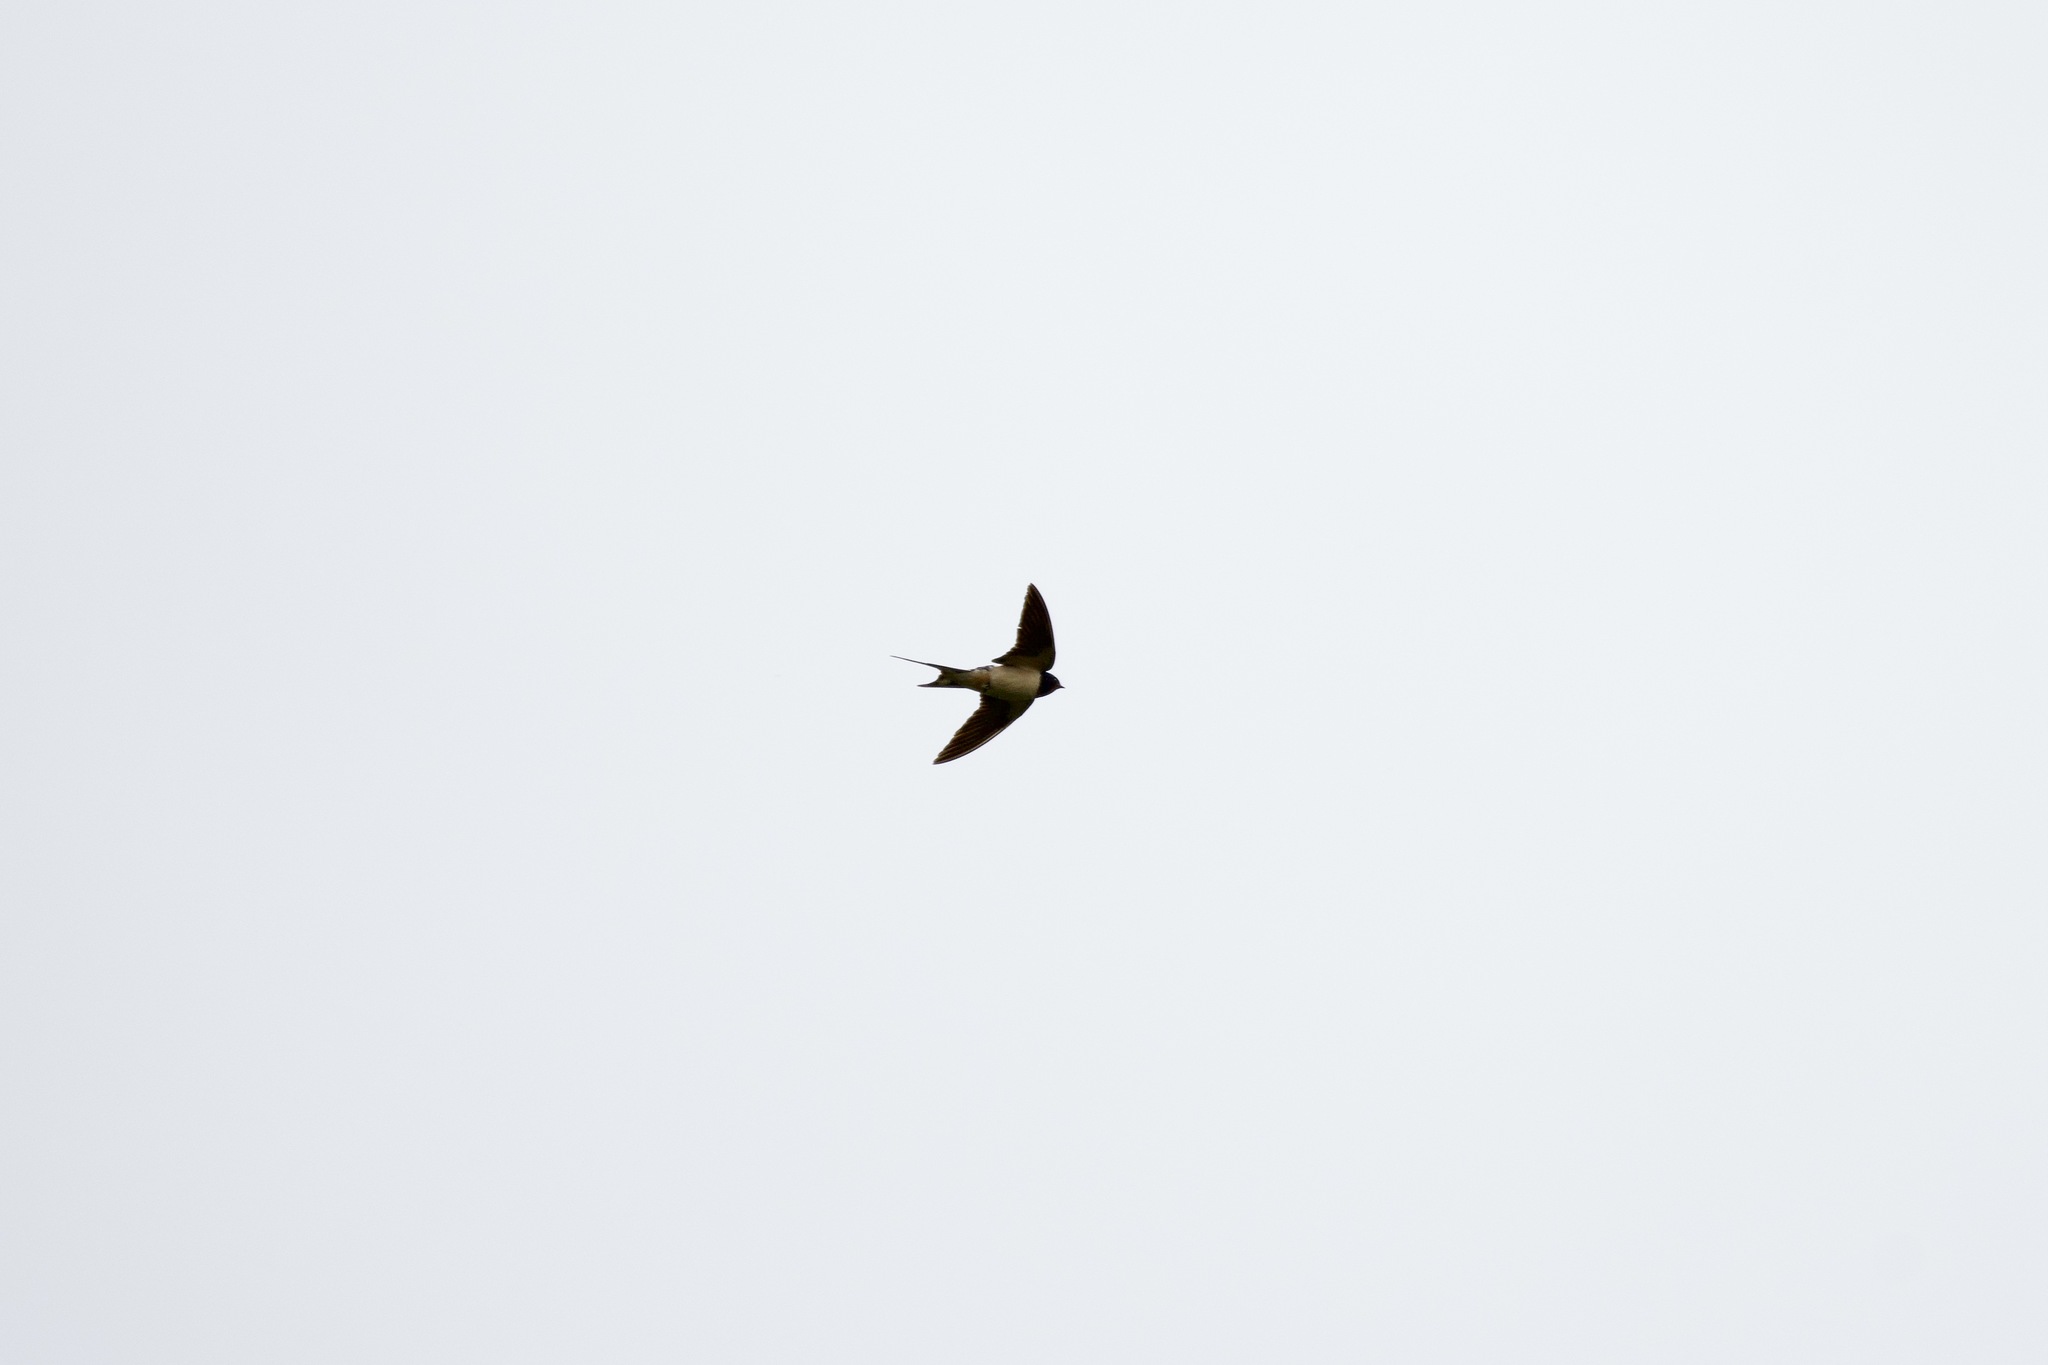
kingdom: Animalia
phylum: Chordata
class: Aves
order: Passeriformes
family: Hirundinidae
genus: Hirundo
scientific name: Hirundo rustica
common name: Barn swallow
